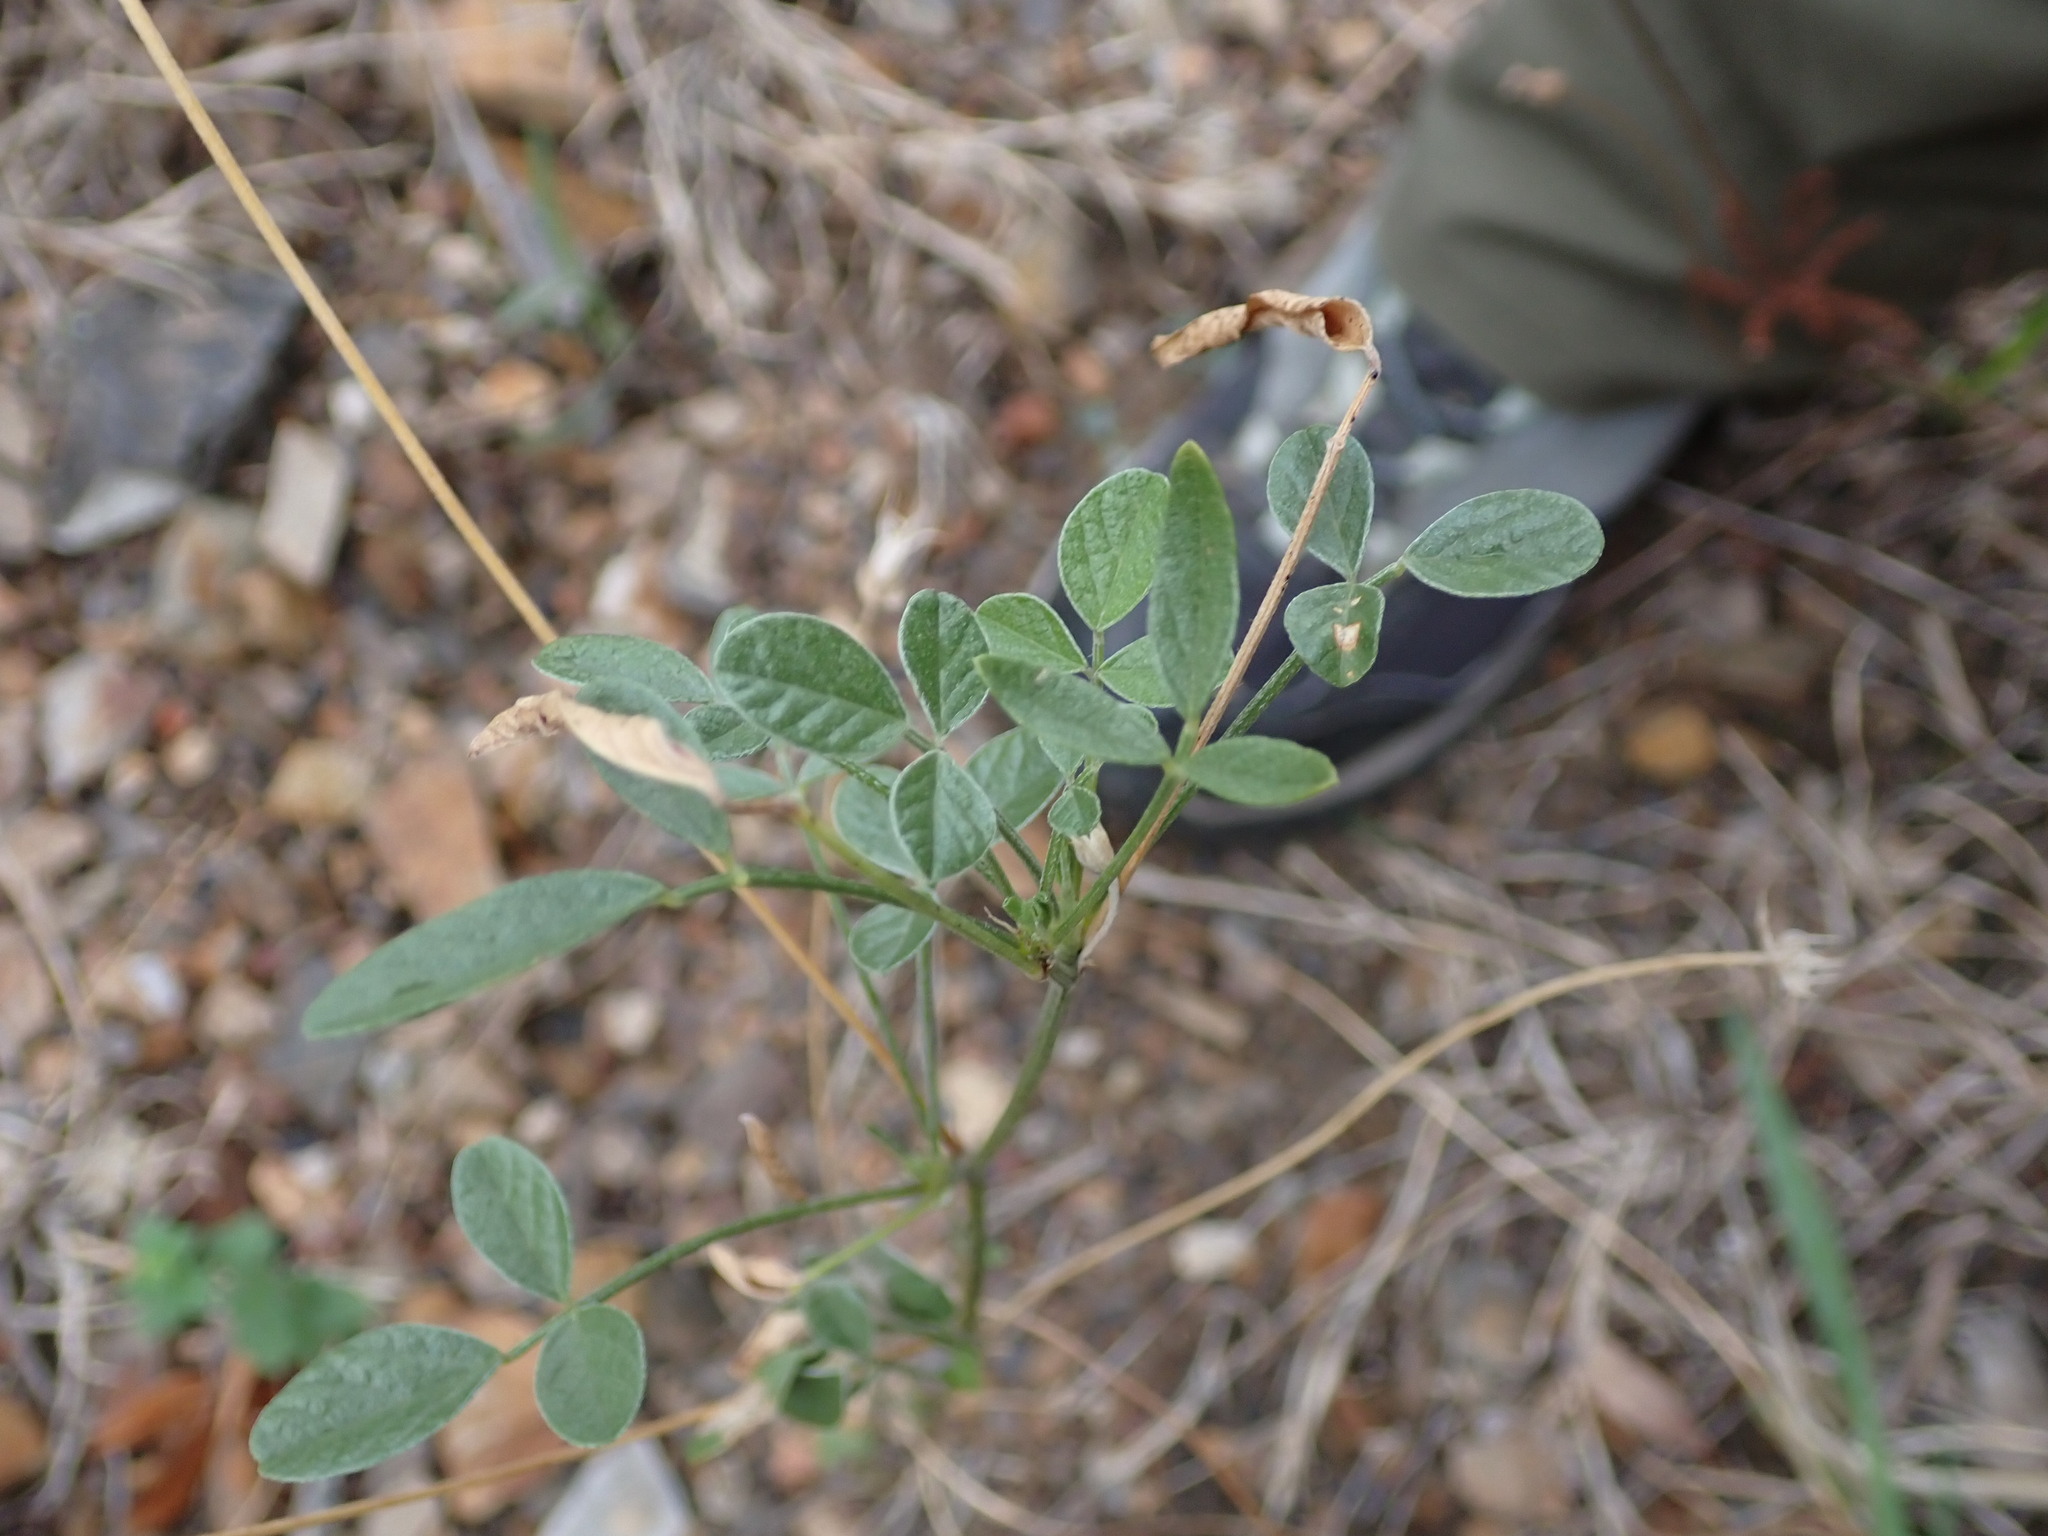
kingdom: Plantae
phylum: Tracheophyta
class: Magnoliopsida
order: Fabales
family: Fabaceae
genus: Bituminaria
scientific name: Bituminaria bituminosa
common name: Arabian pea
